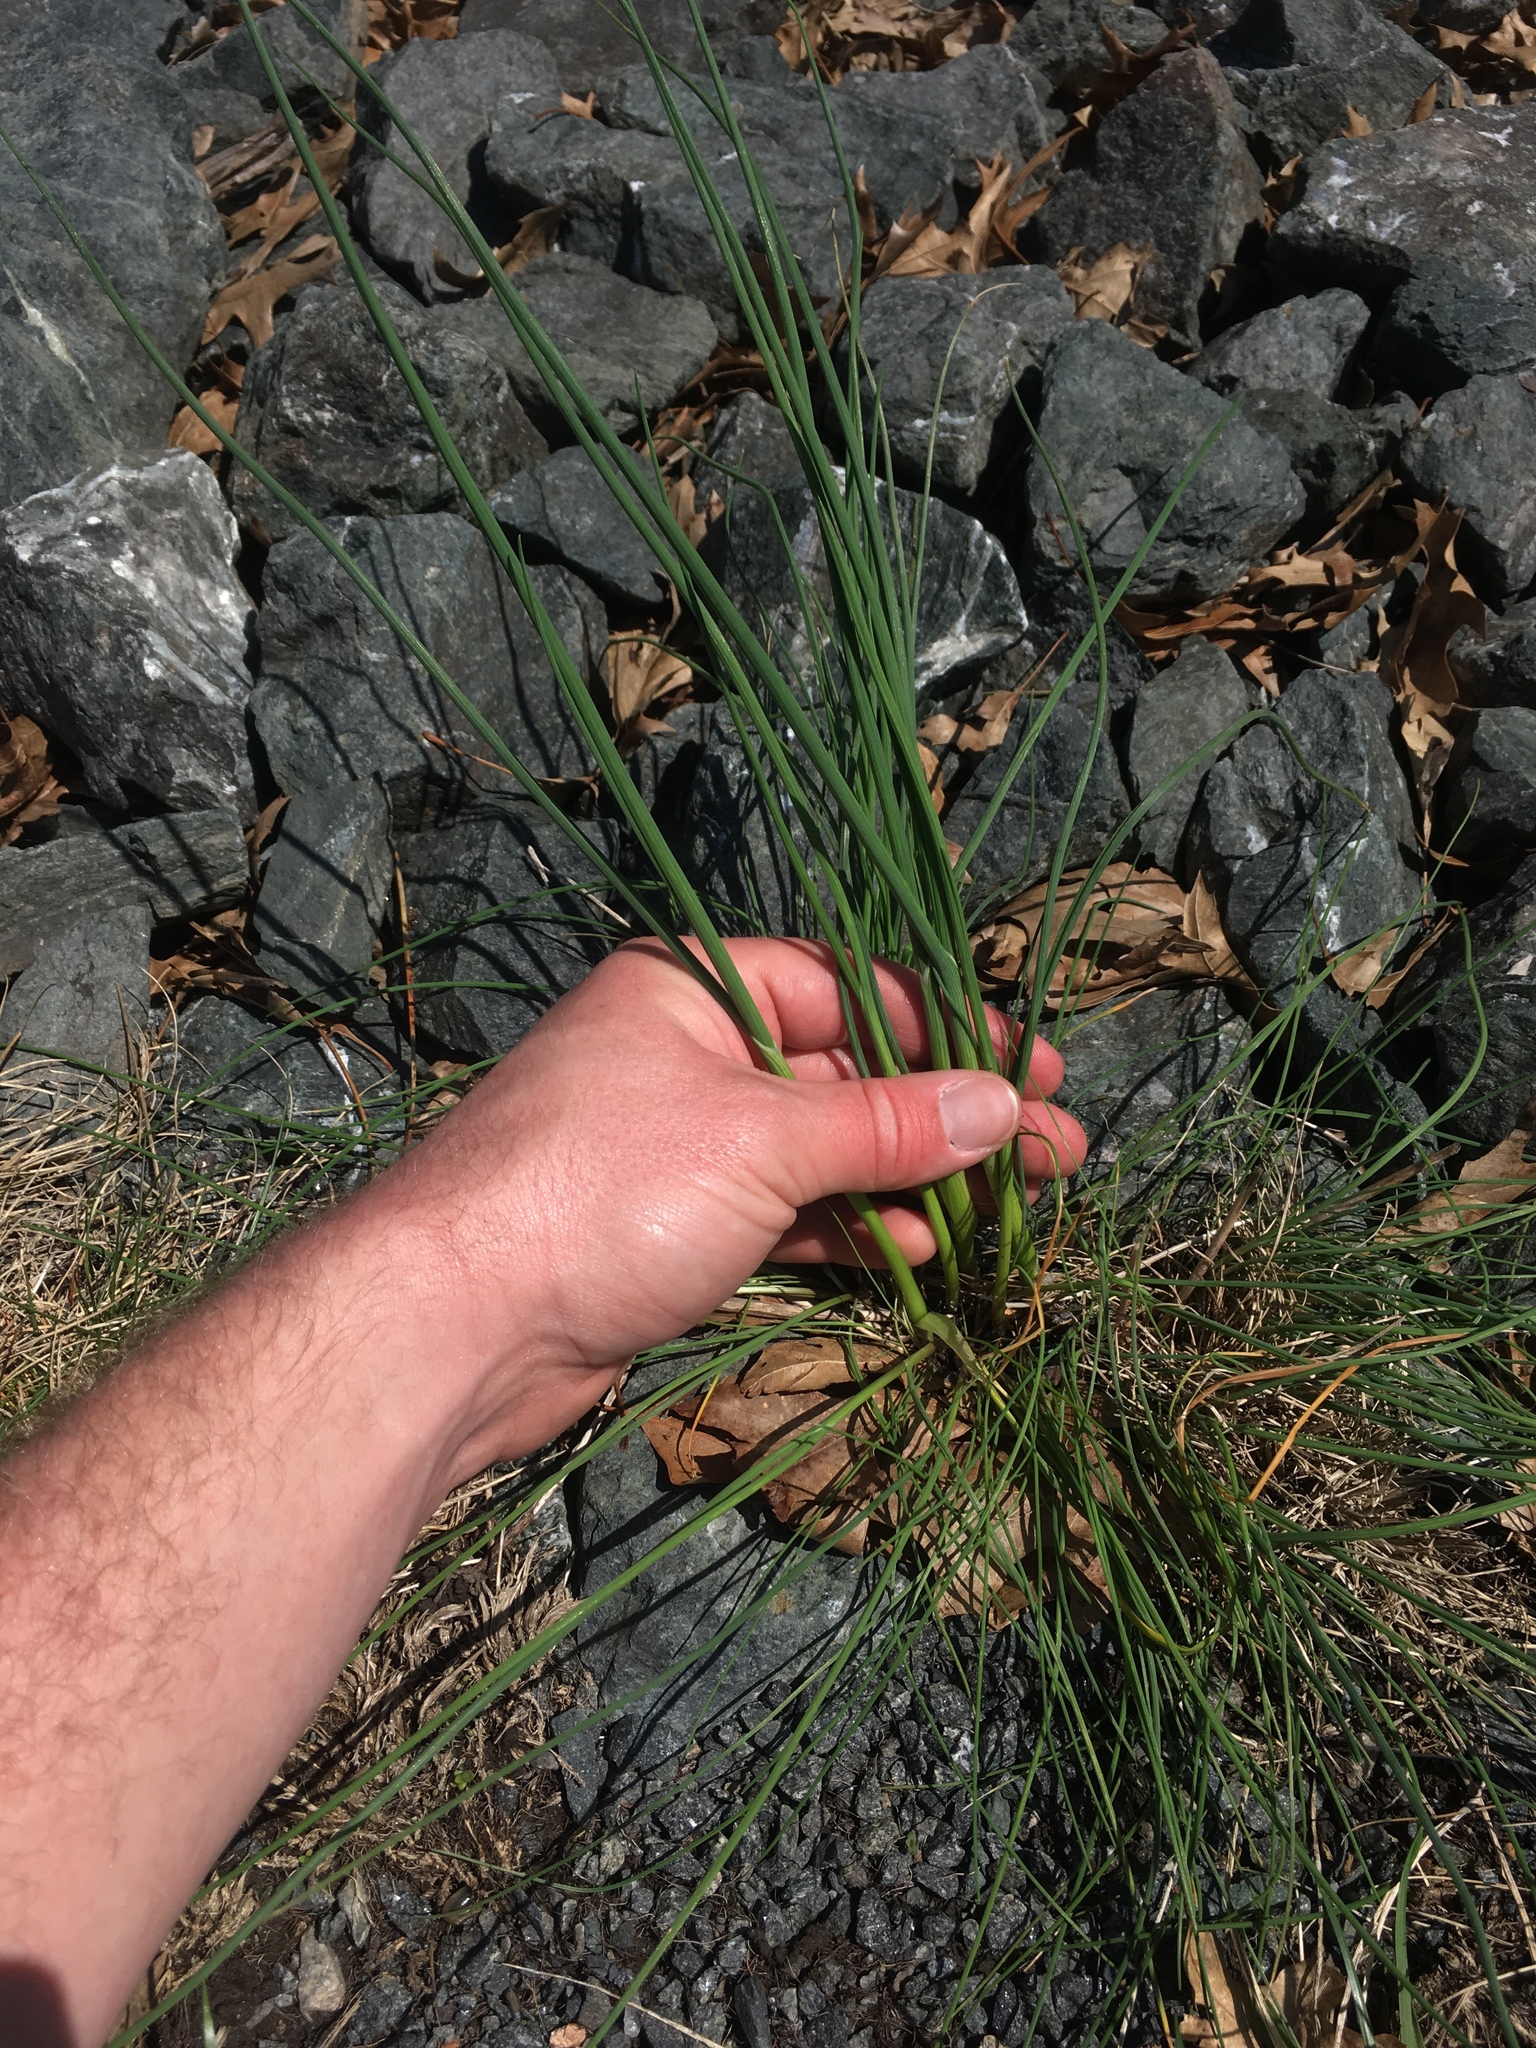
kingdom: Plantae
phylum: Tracheophyta
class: Liliopsida
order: Asparagales
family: Amaryllidaceae
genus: Allium
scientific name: Allium vineale
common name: Crow garlic
